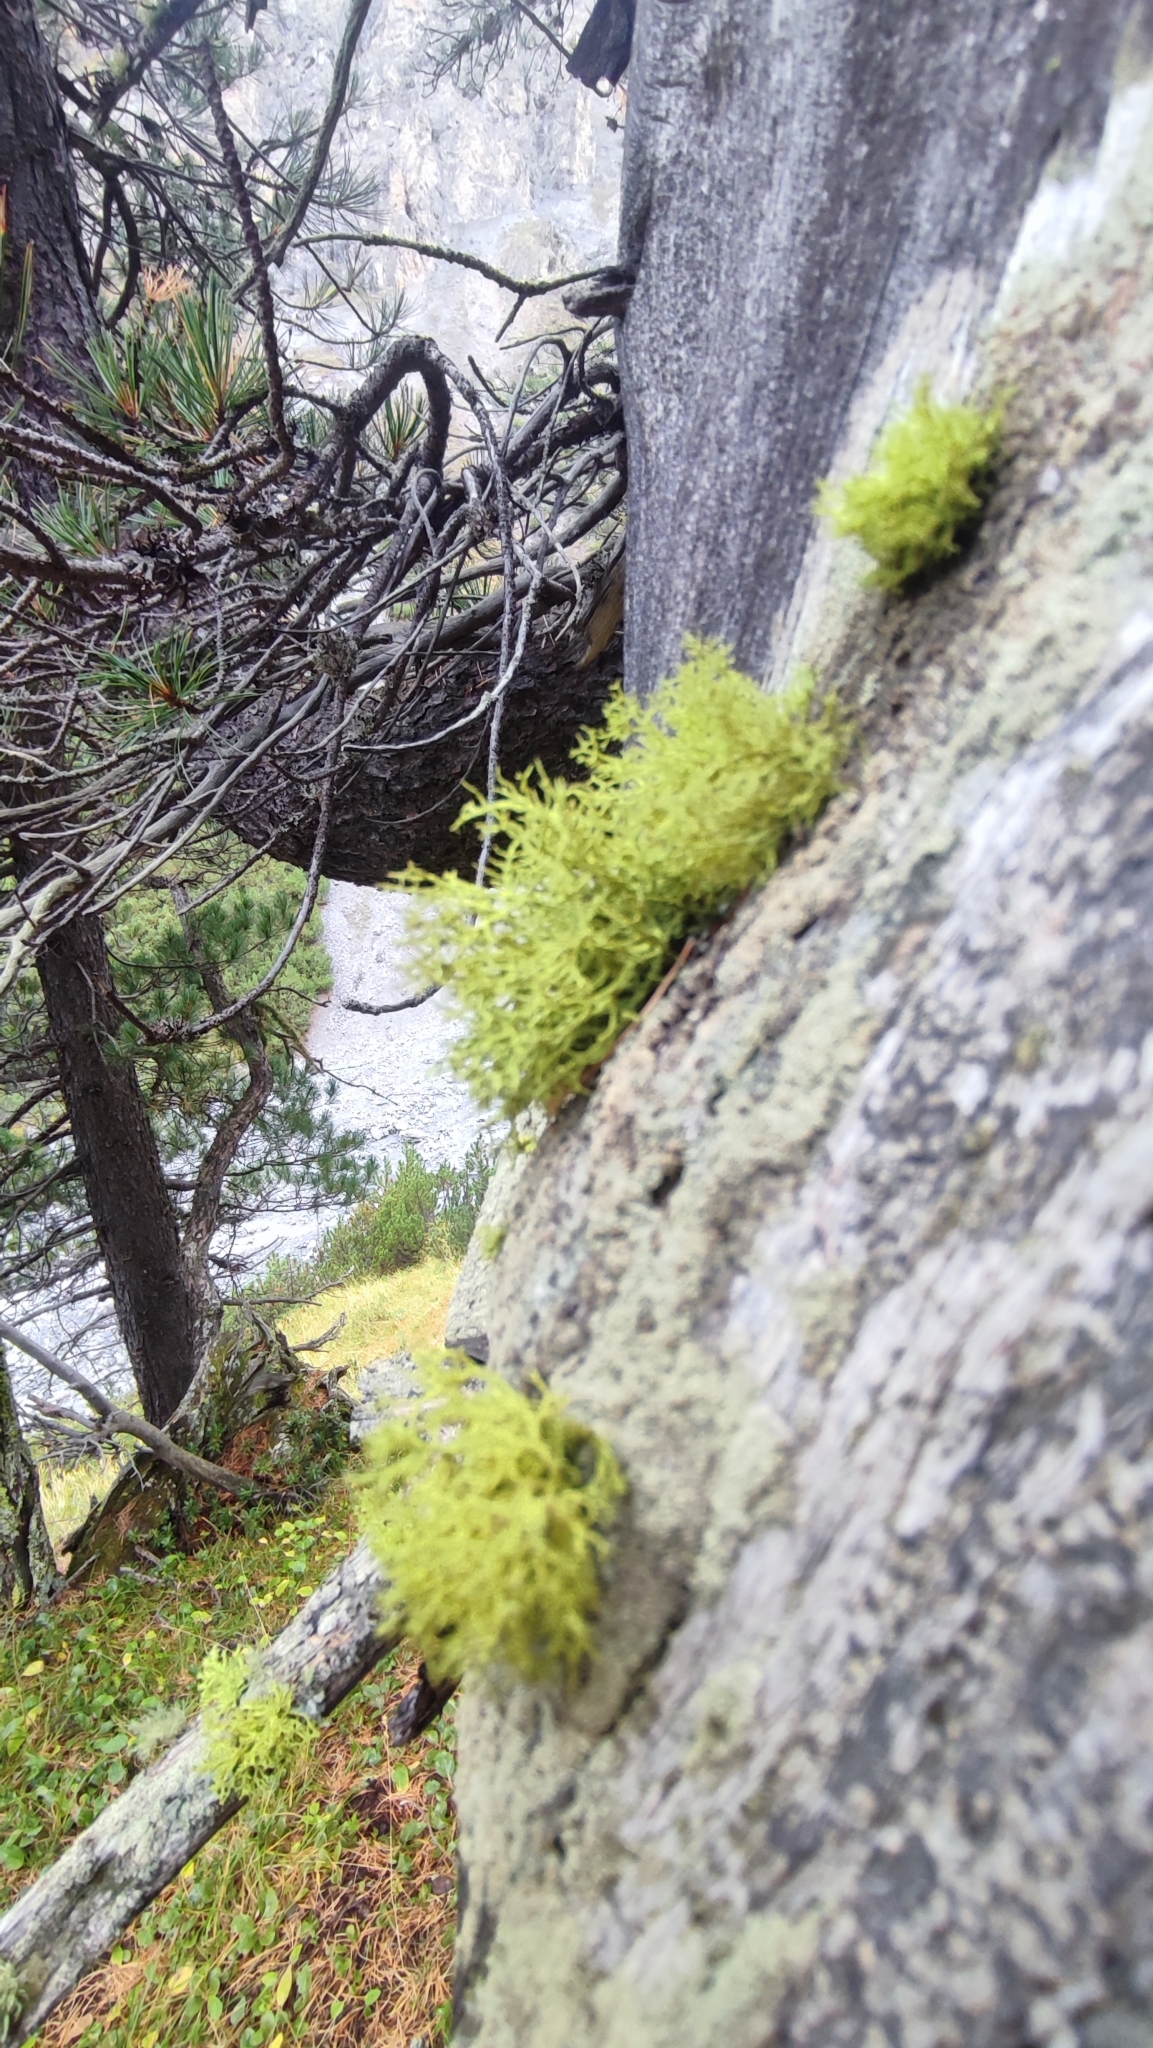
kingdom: Fungi
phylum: Ascomycota
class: Lecanoromycetes
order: Lecanorales
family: Parmeliaceae
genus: Letharia
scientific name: Letharia vulpina
